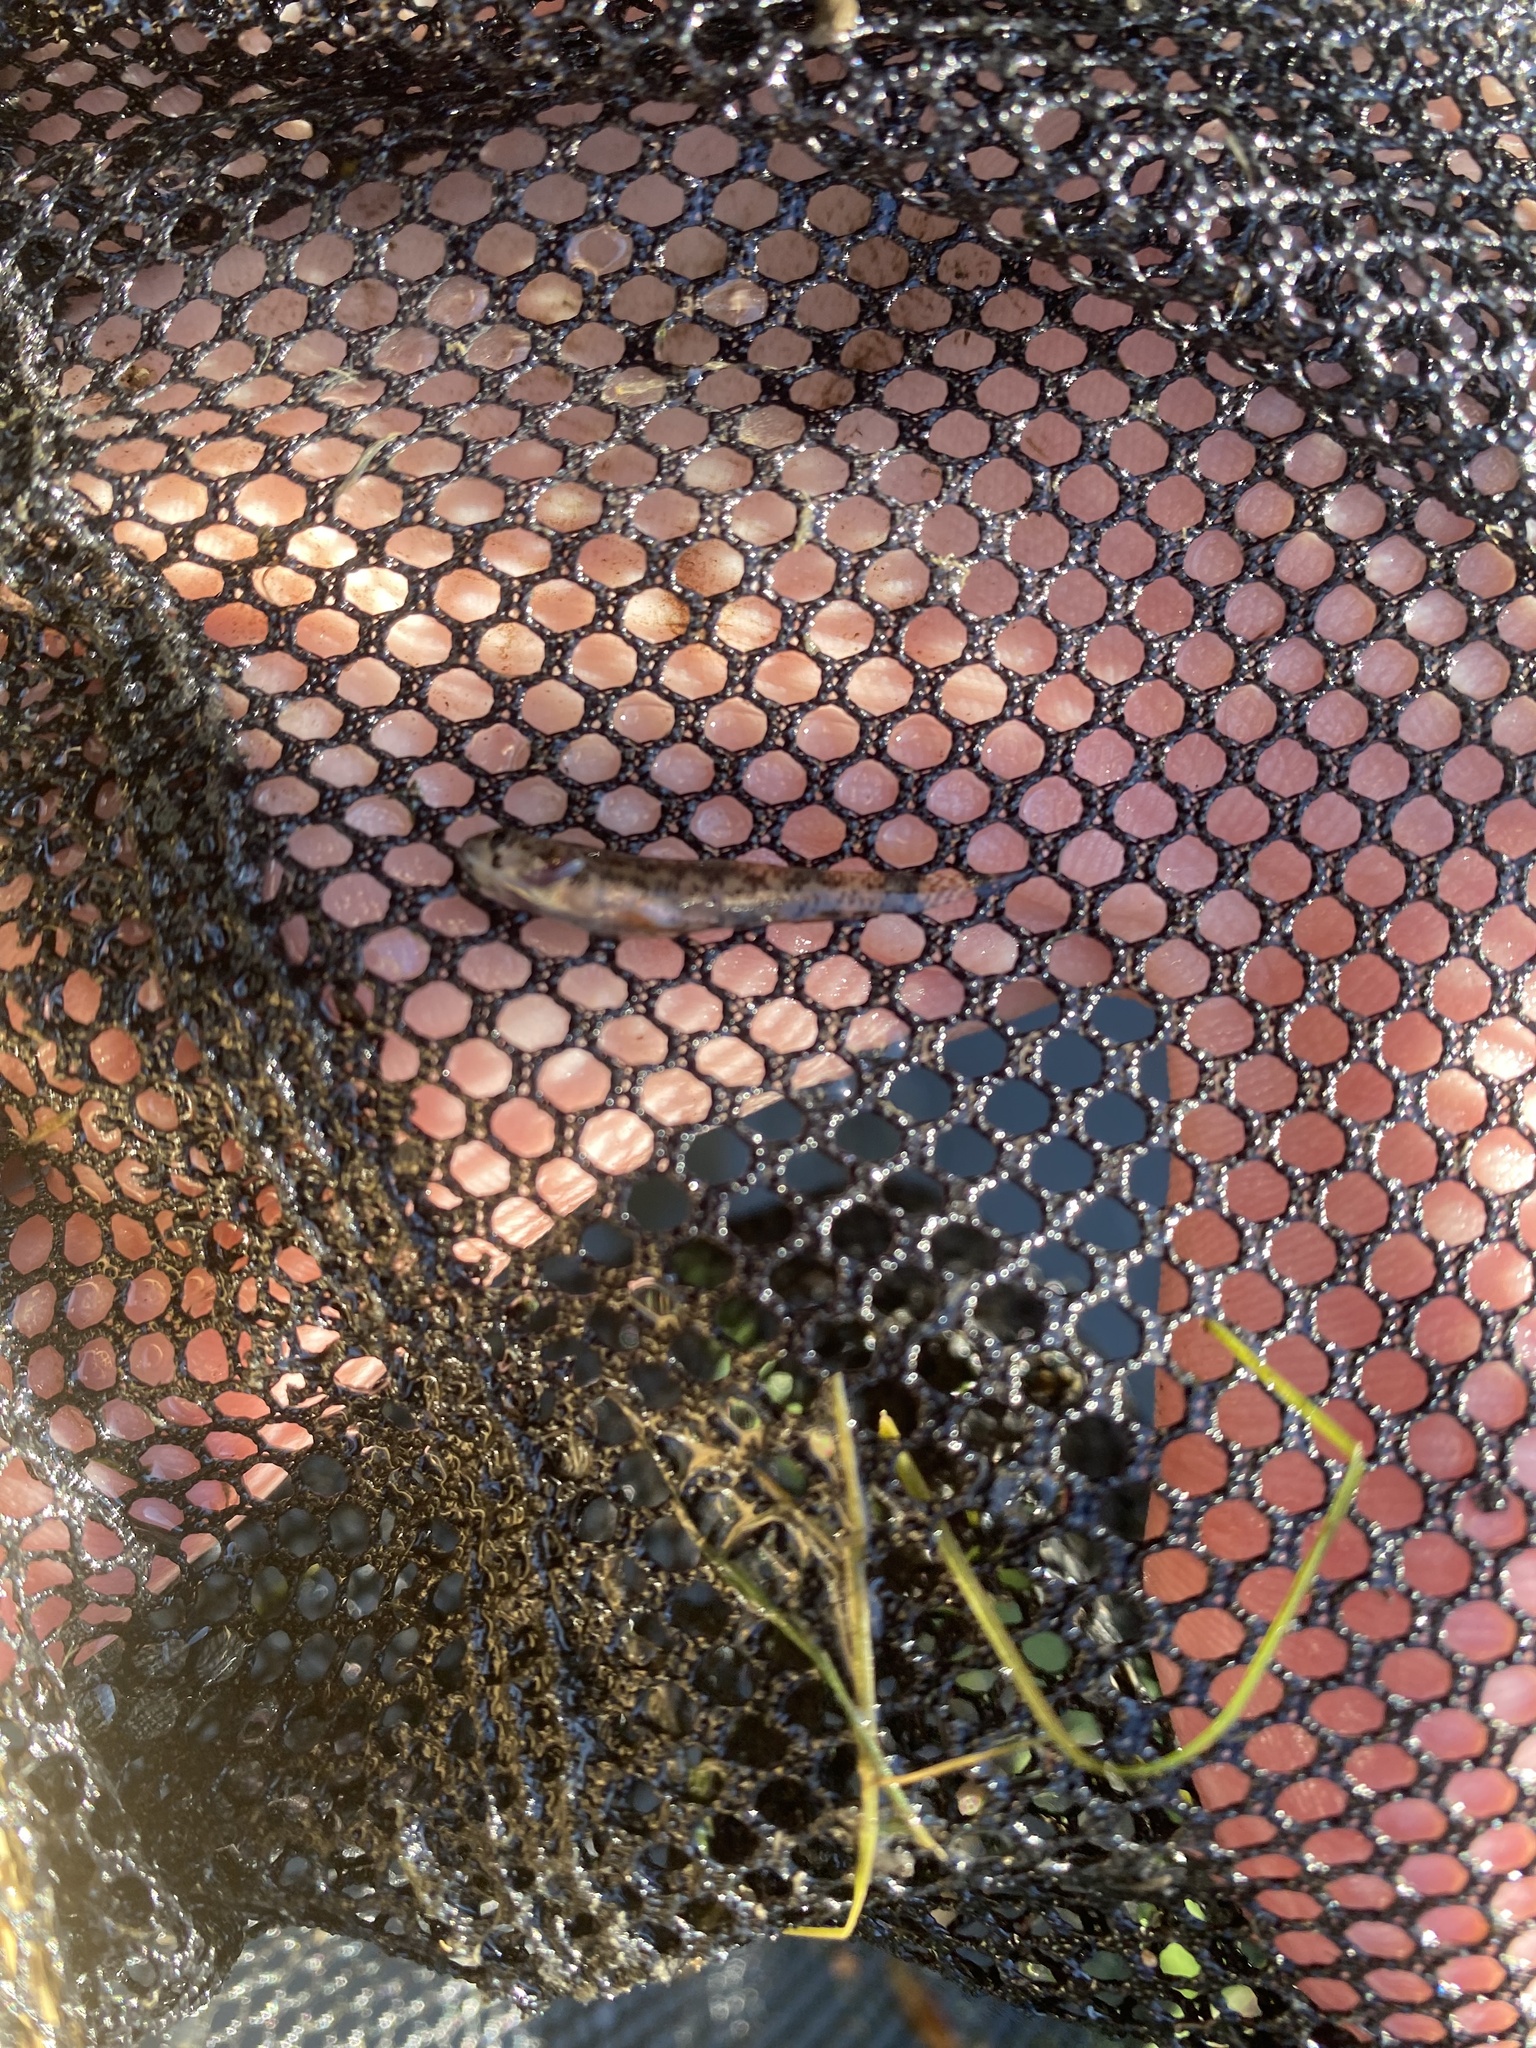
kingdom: Animalia
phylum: Chordata
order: Perciformes
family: Percidae
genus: Etheostoma
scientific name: Etheostoma microperca
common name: Least darter
